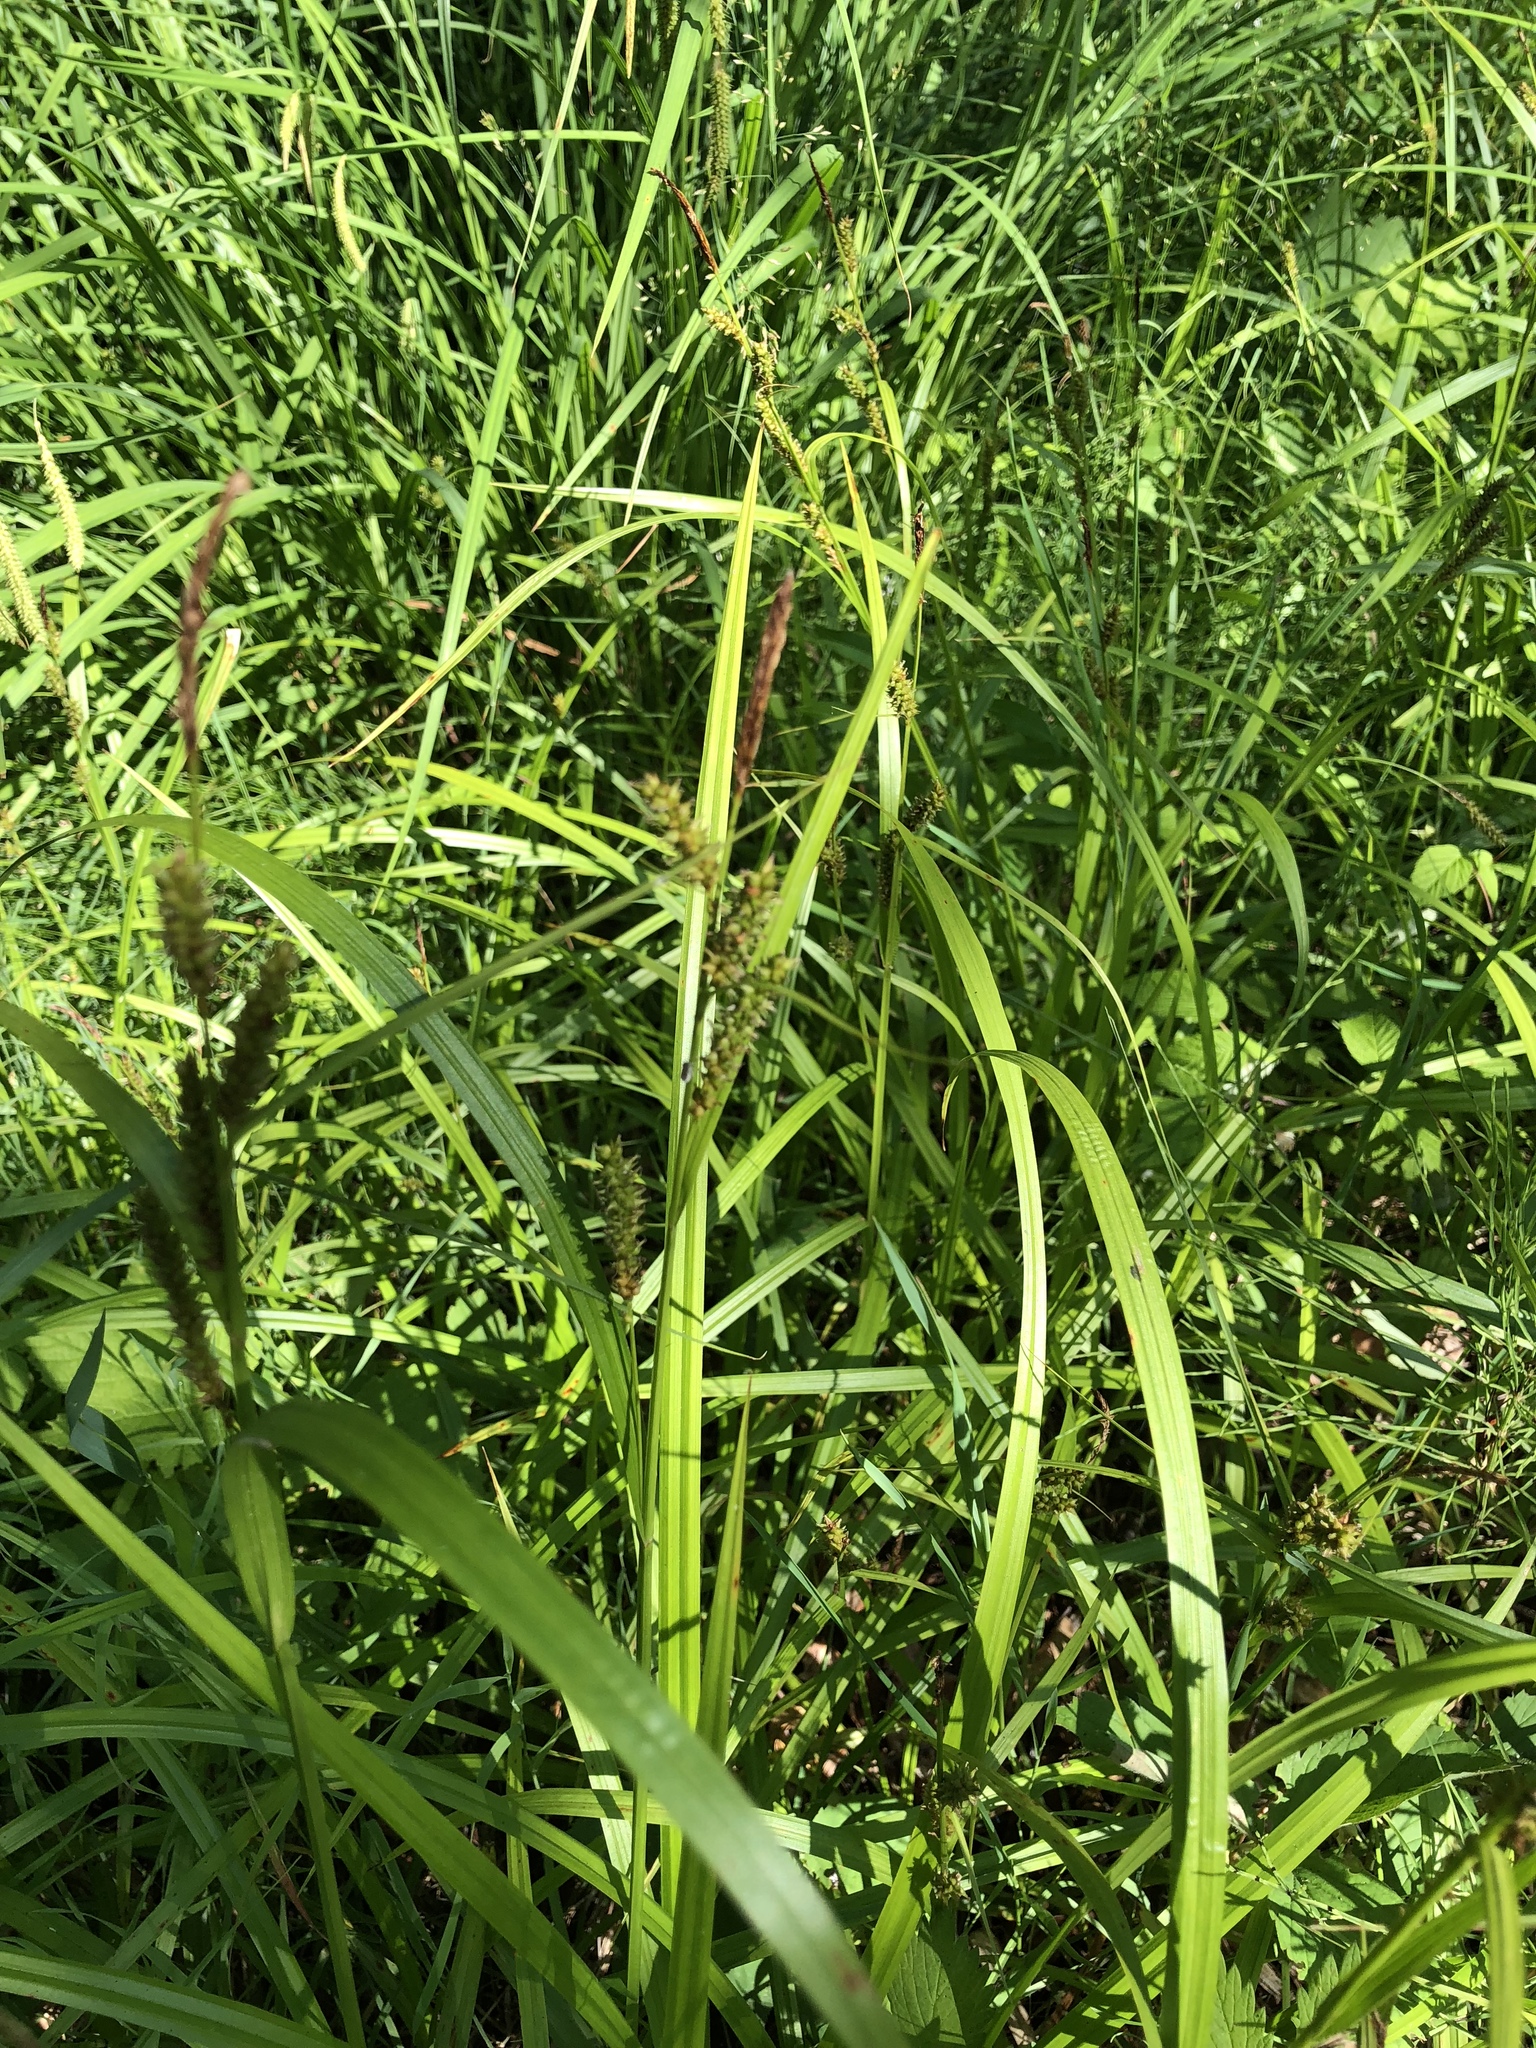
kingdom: Plantae
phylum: Tracheophyta
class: Liliopsida
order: Poales
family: Cyperaceae
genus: Carex
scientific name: Carex scabrata
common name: Eastern rough sedge
